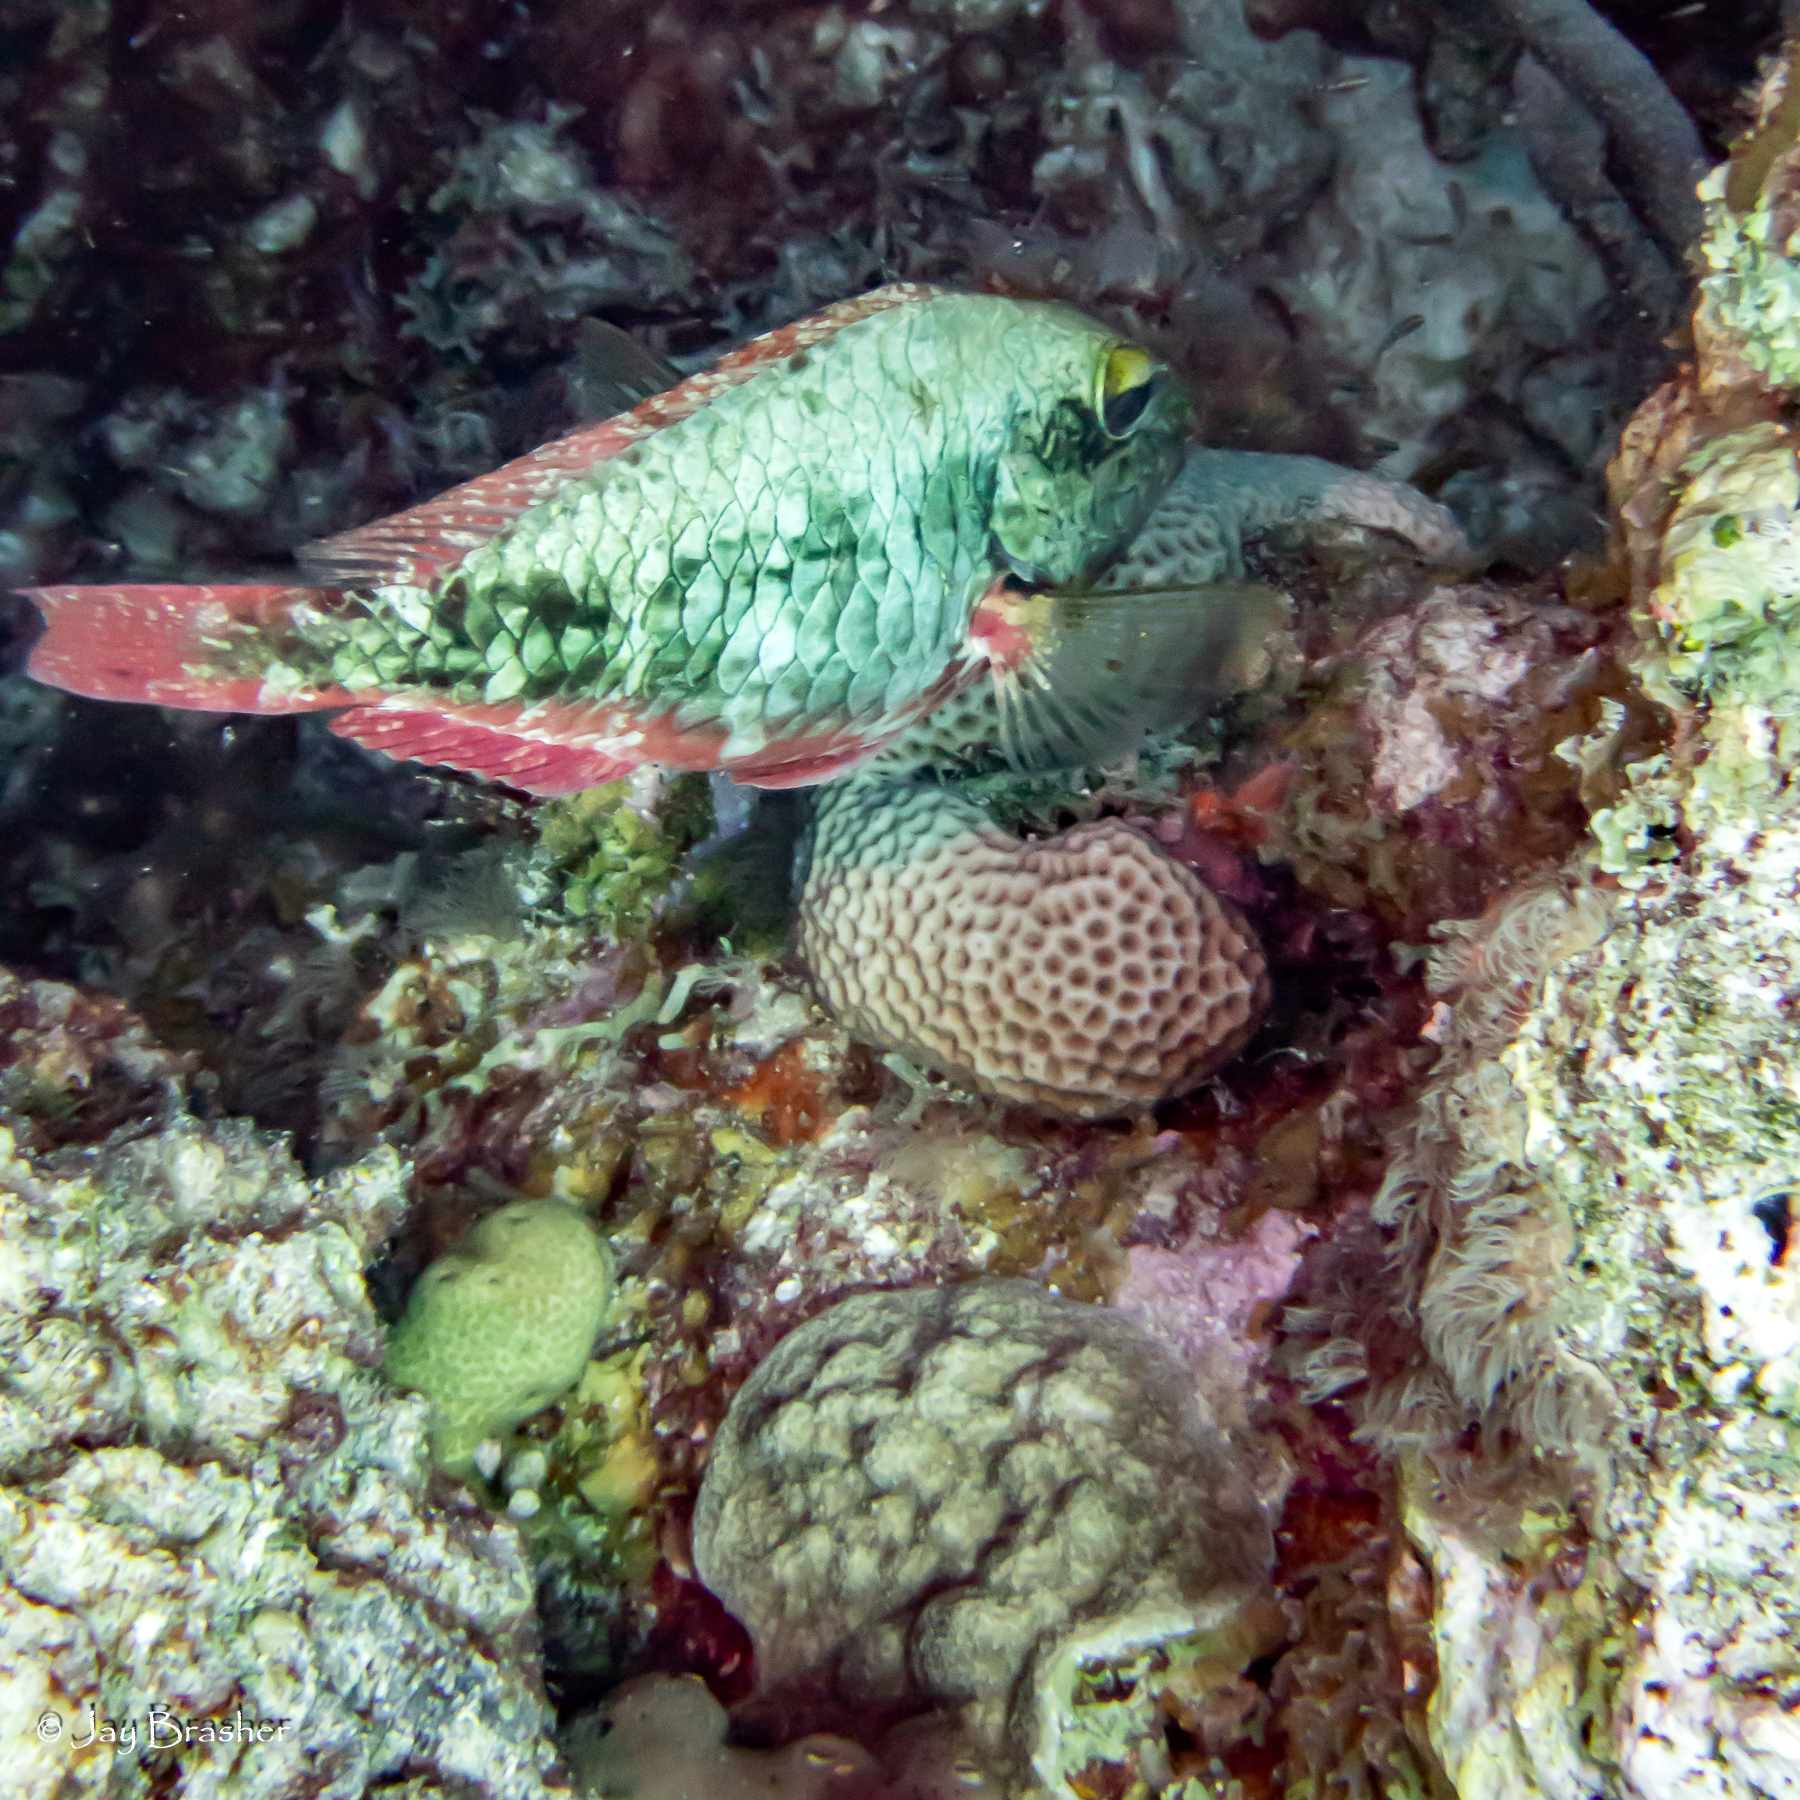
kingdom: Animalia
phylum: Cnidaria
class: Anthozoa
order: Scleractinia
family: Rhizangiidae
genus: Siderastrea
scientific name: Siderastrea siderea
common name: Massive starlet coral
